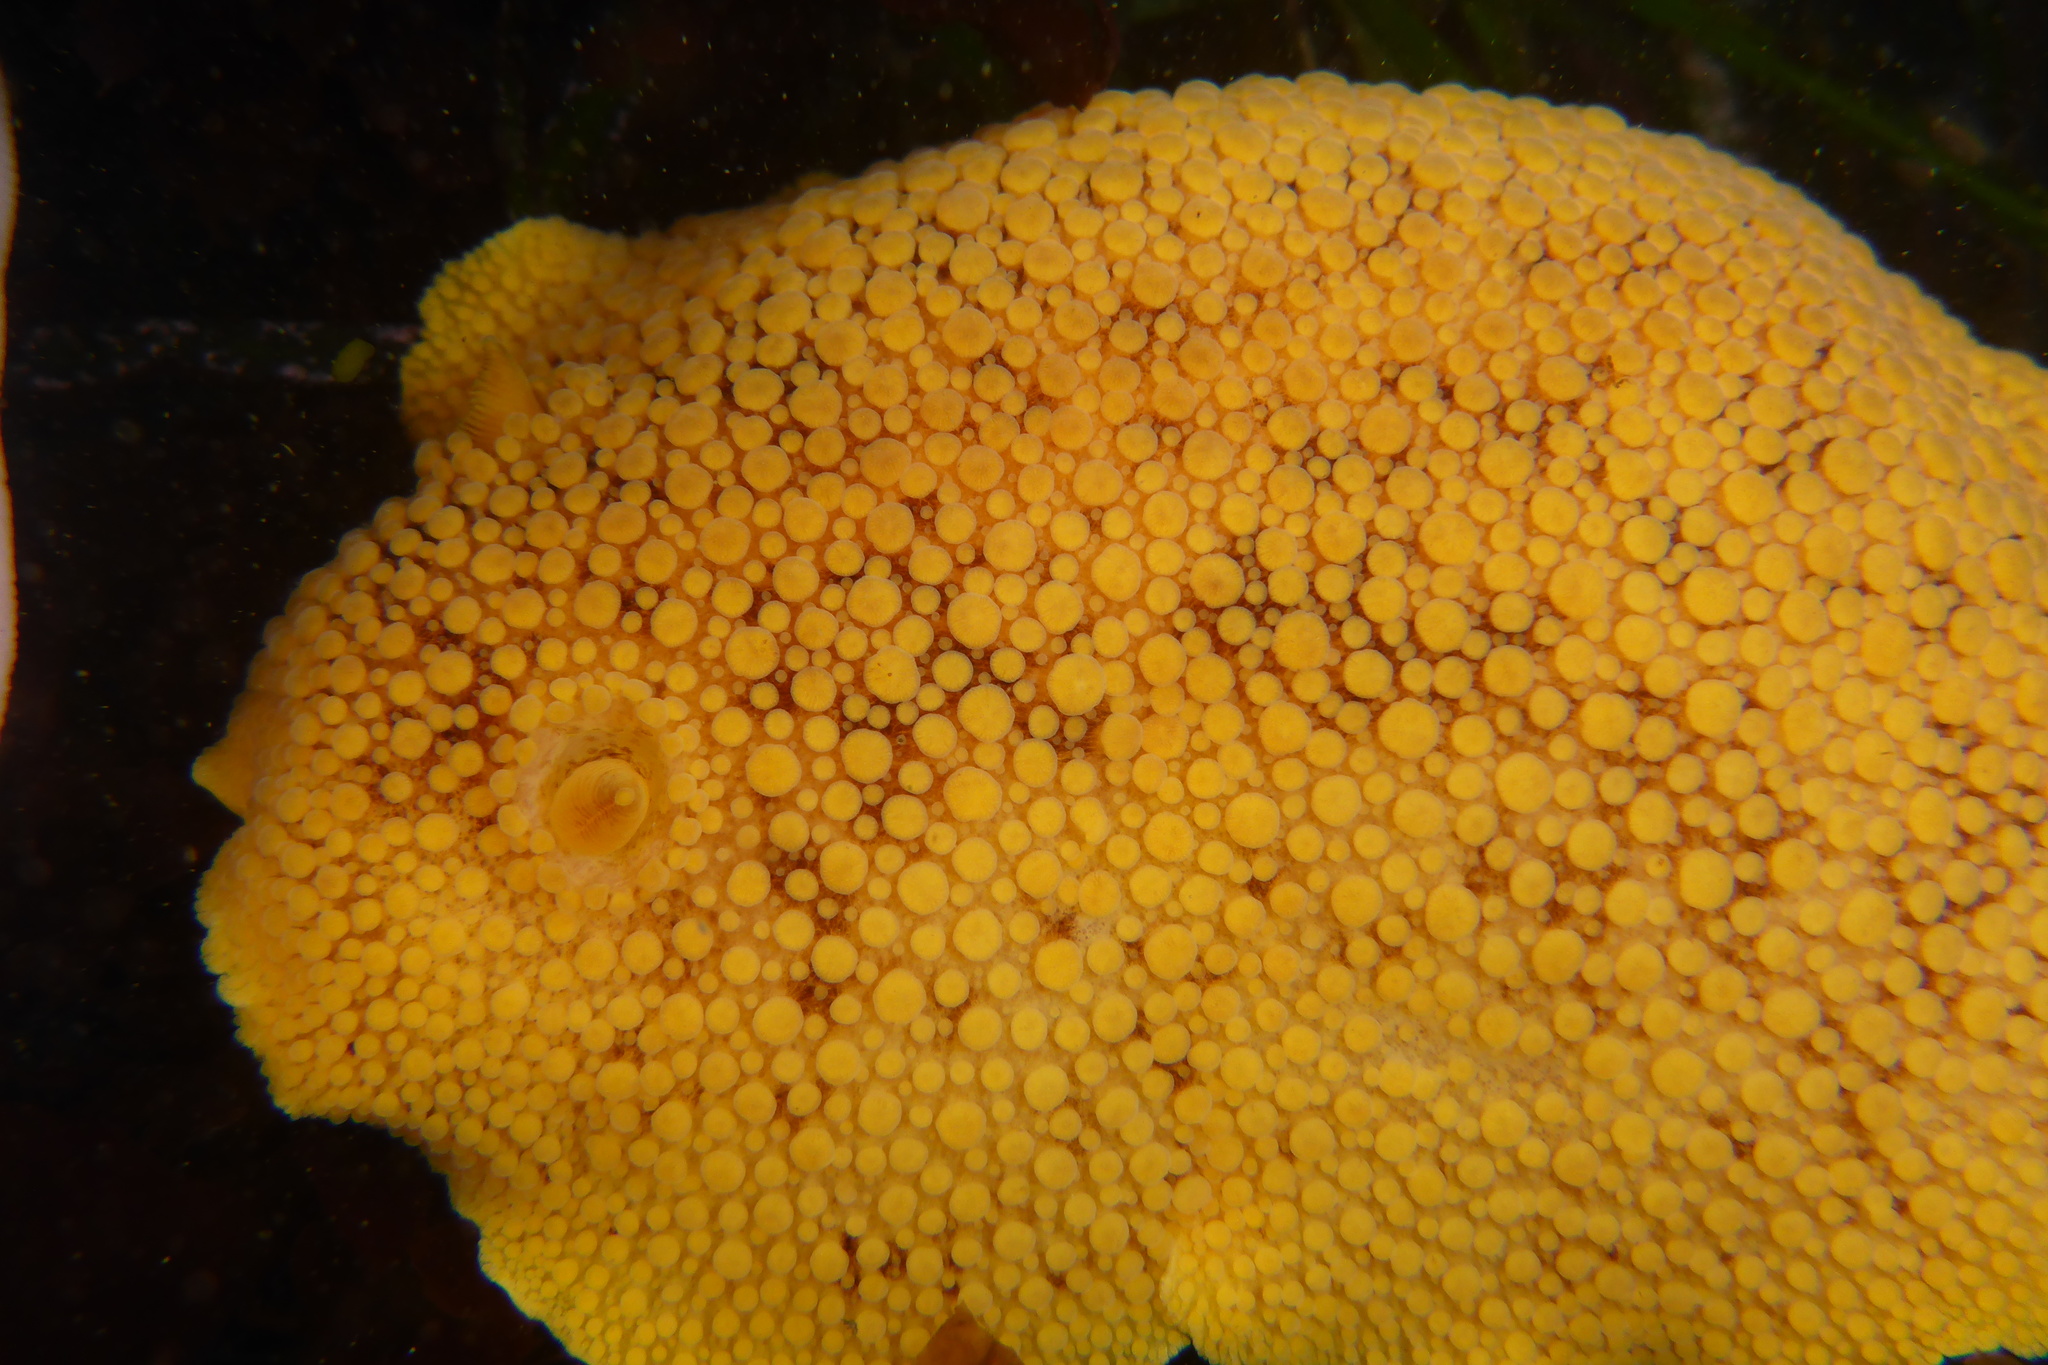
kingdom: Animalia
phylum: Mollusca
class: Gastropoda
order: Nudibranchia
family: Discodorididae
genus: Peltodoris
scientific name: Peltodoris nobilis
